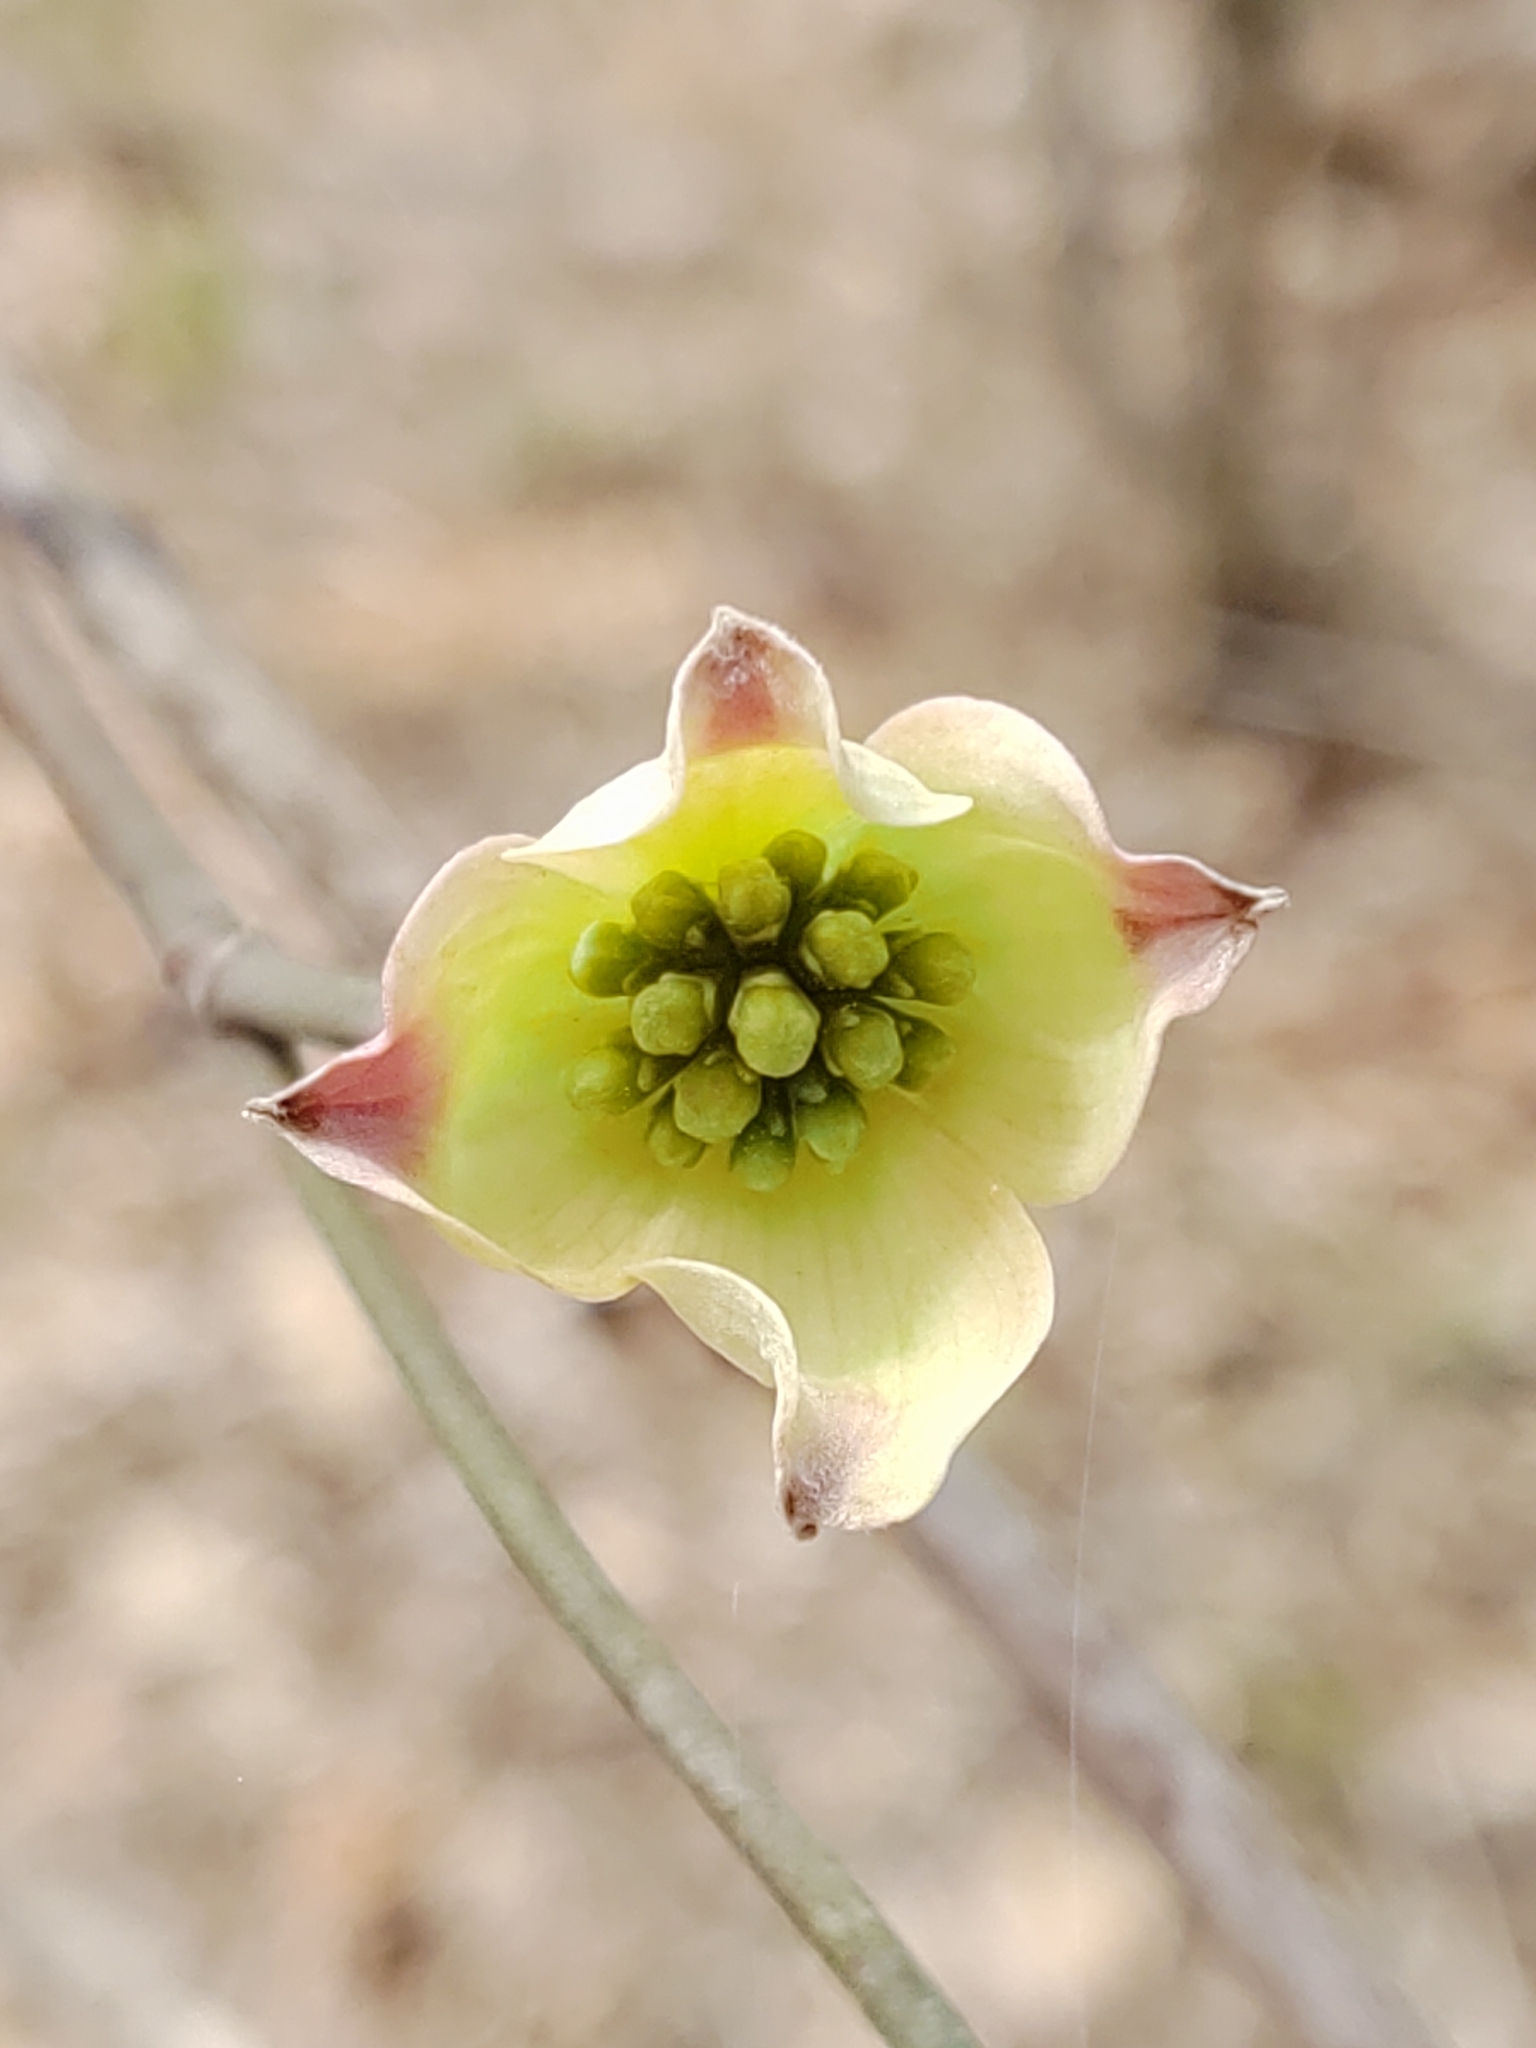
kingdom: Plantae
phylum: Tracheophyta
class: Magnoliopsida
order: Cornales
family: Cornaceae
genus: Cornus
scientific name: Cornus florida
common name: Flowering dogwood
